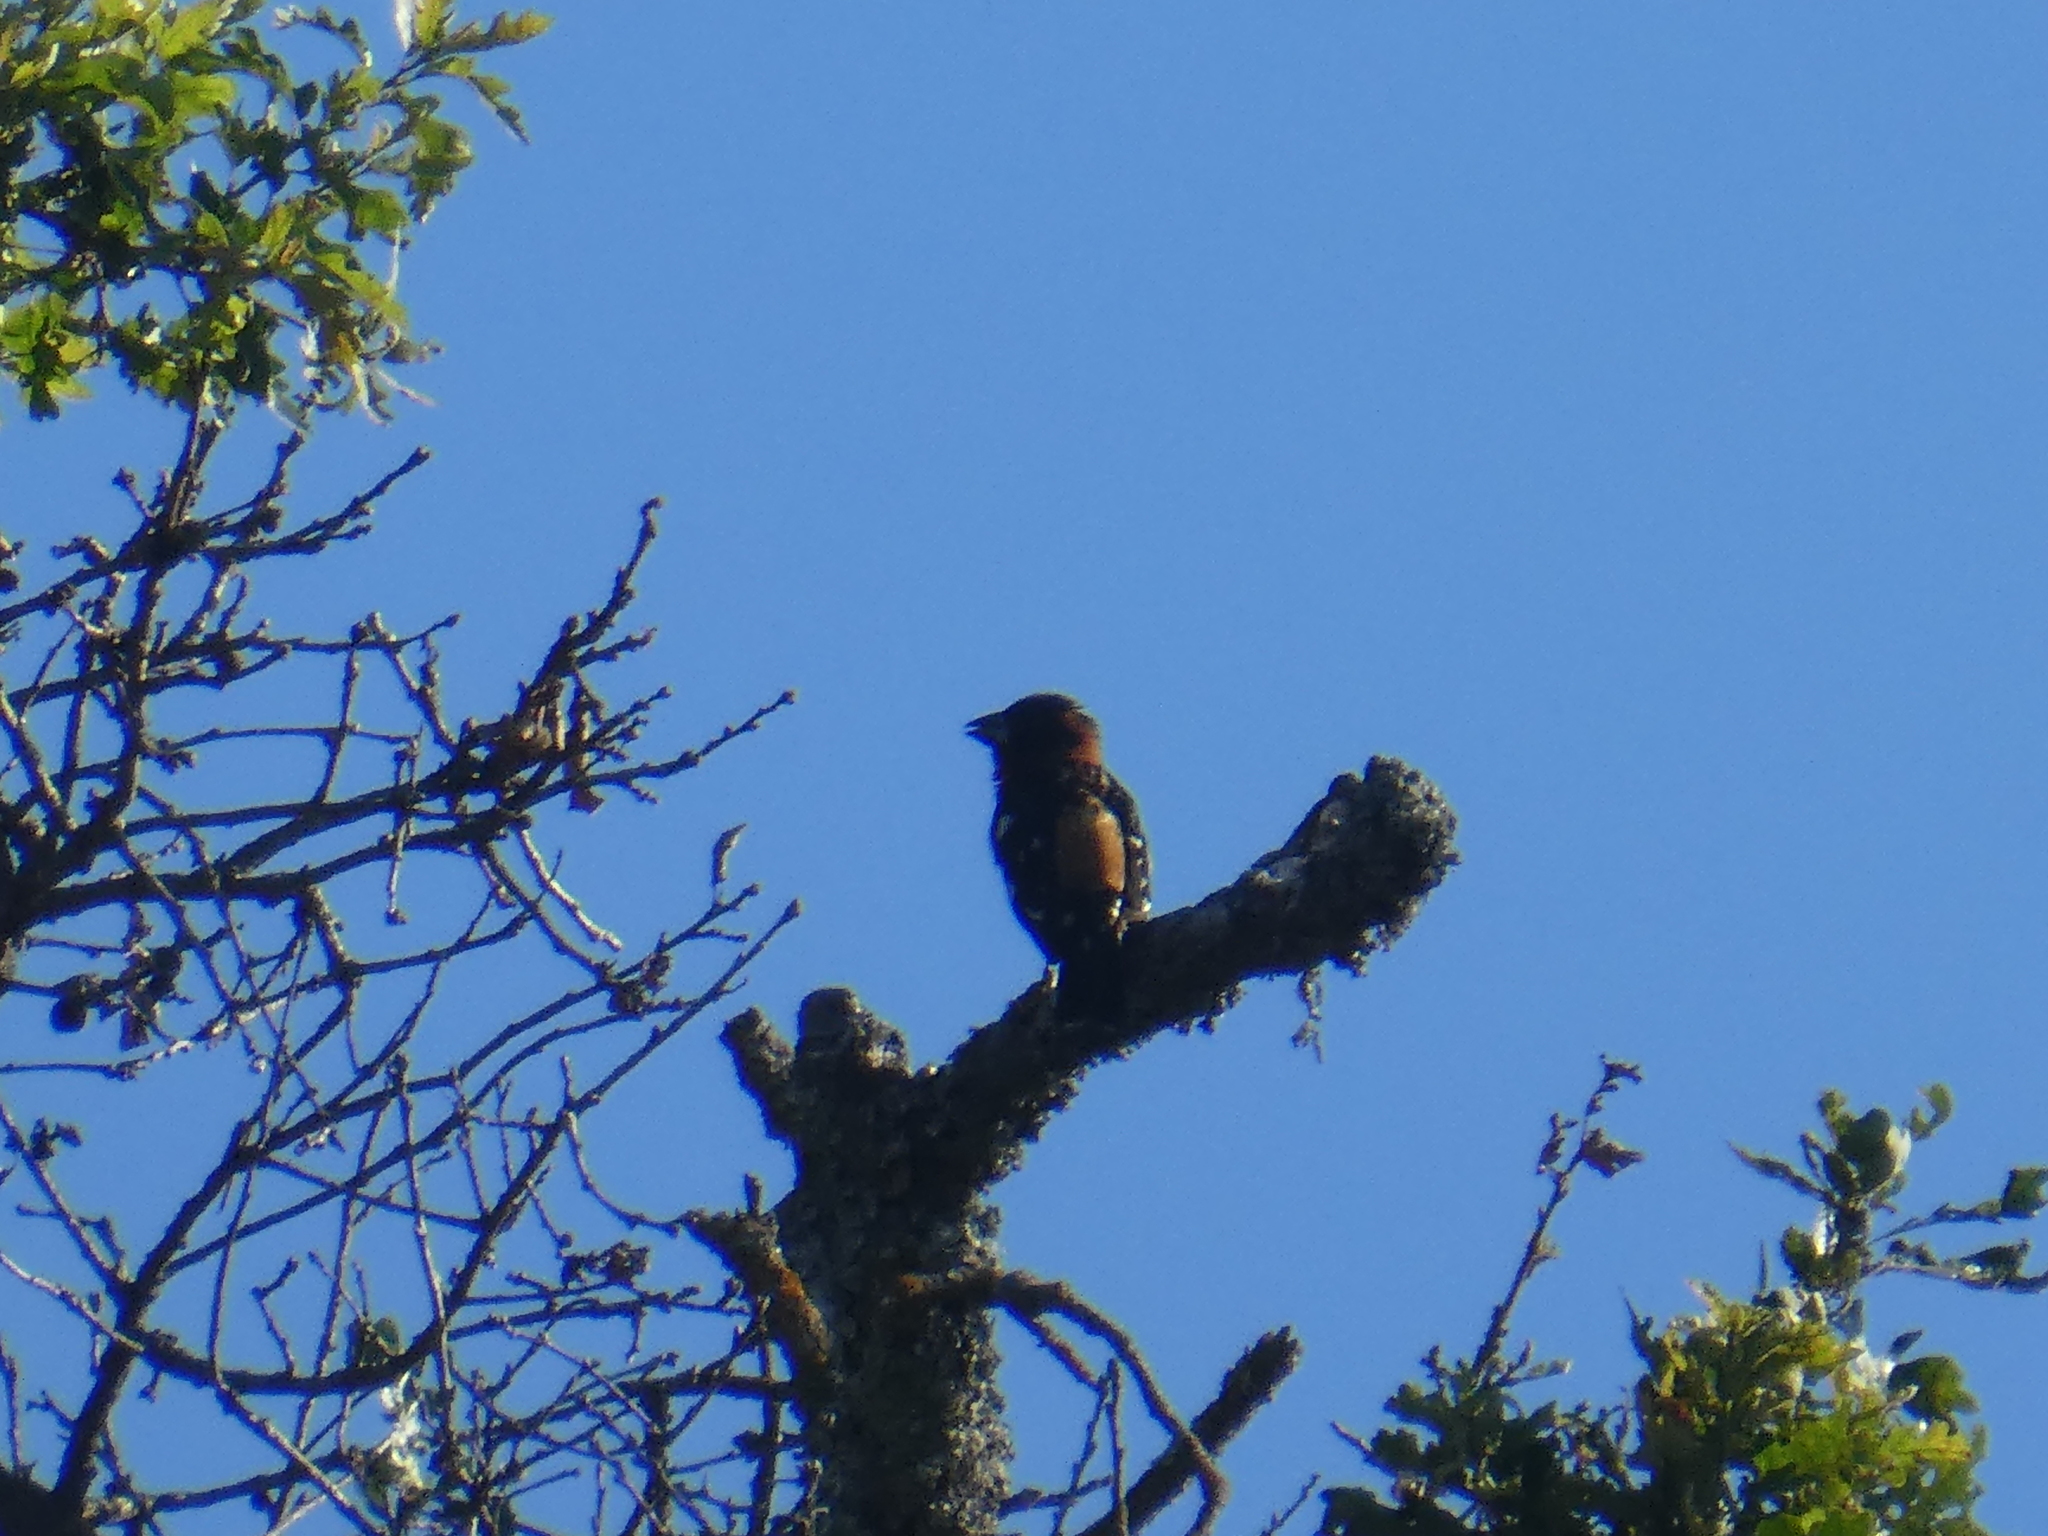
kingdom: Animalia
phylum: Chordata
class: Aves
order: Passeriformes
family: Cardinalidae
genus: Pheucticus
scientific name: Pheucticus melanocephalus
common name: Black-headed grosbeak
